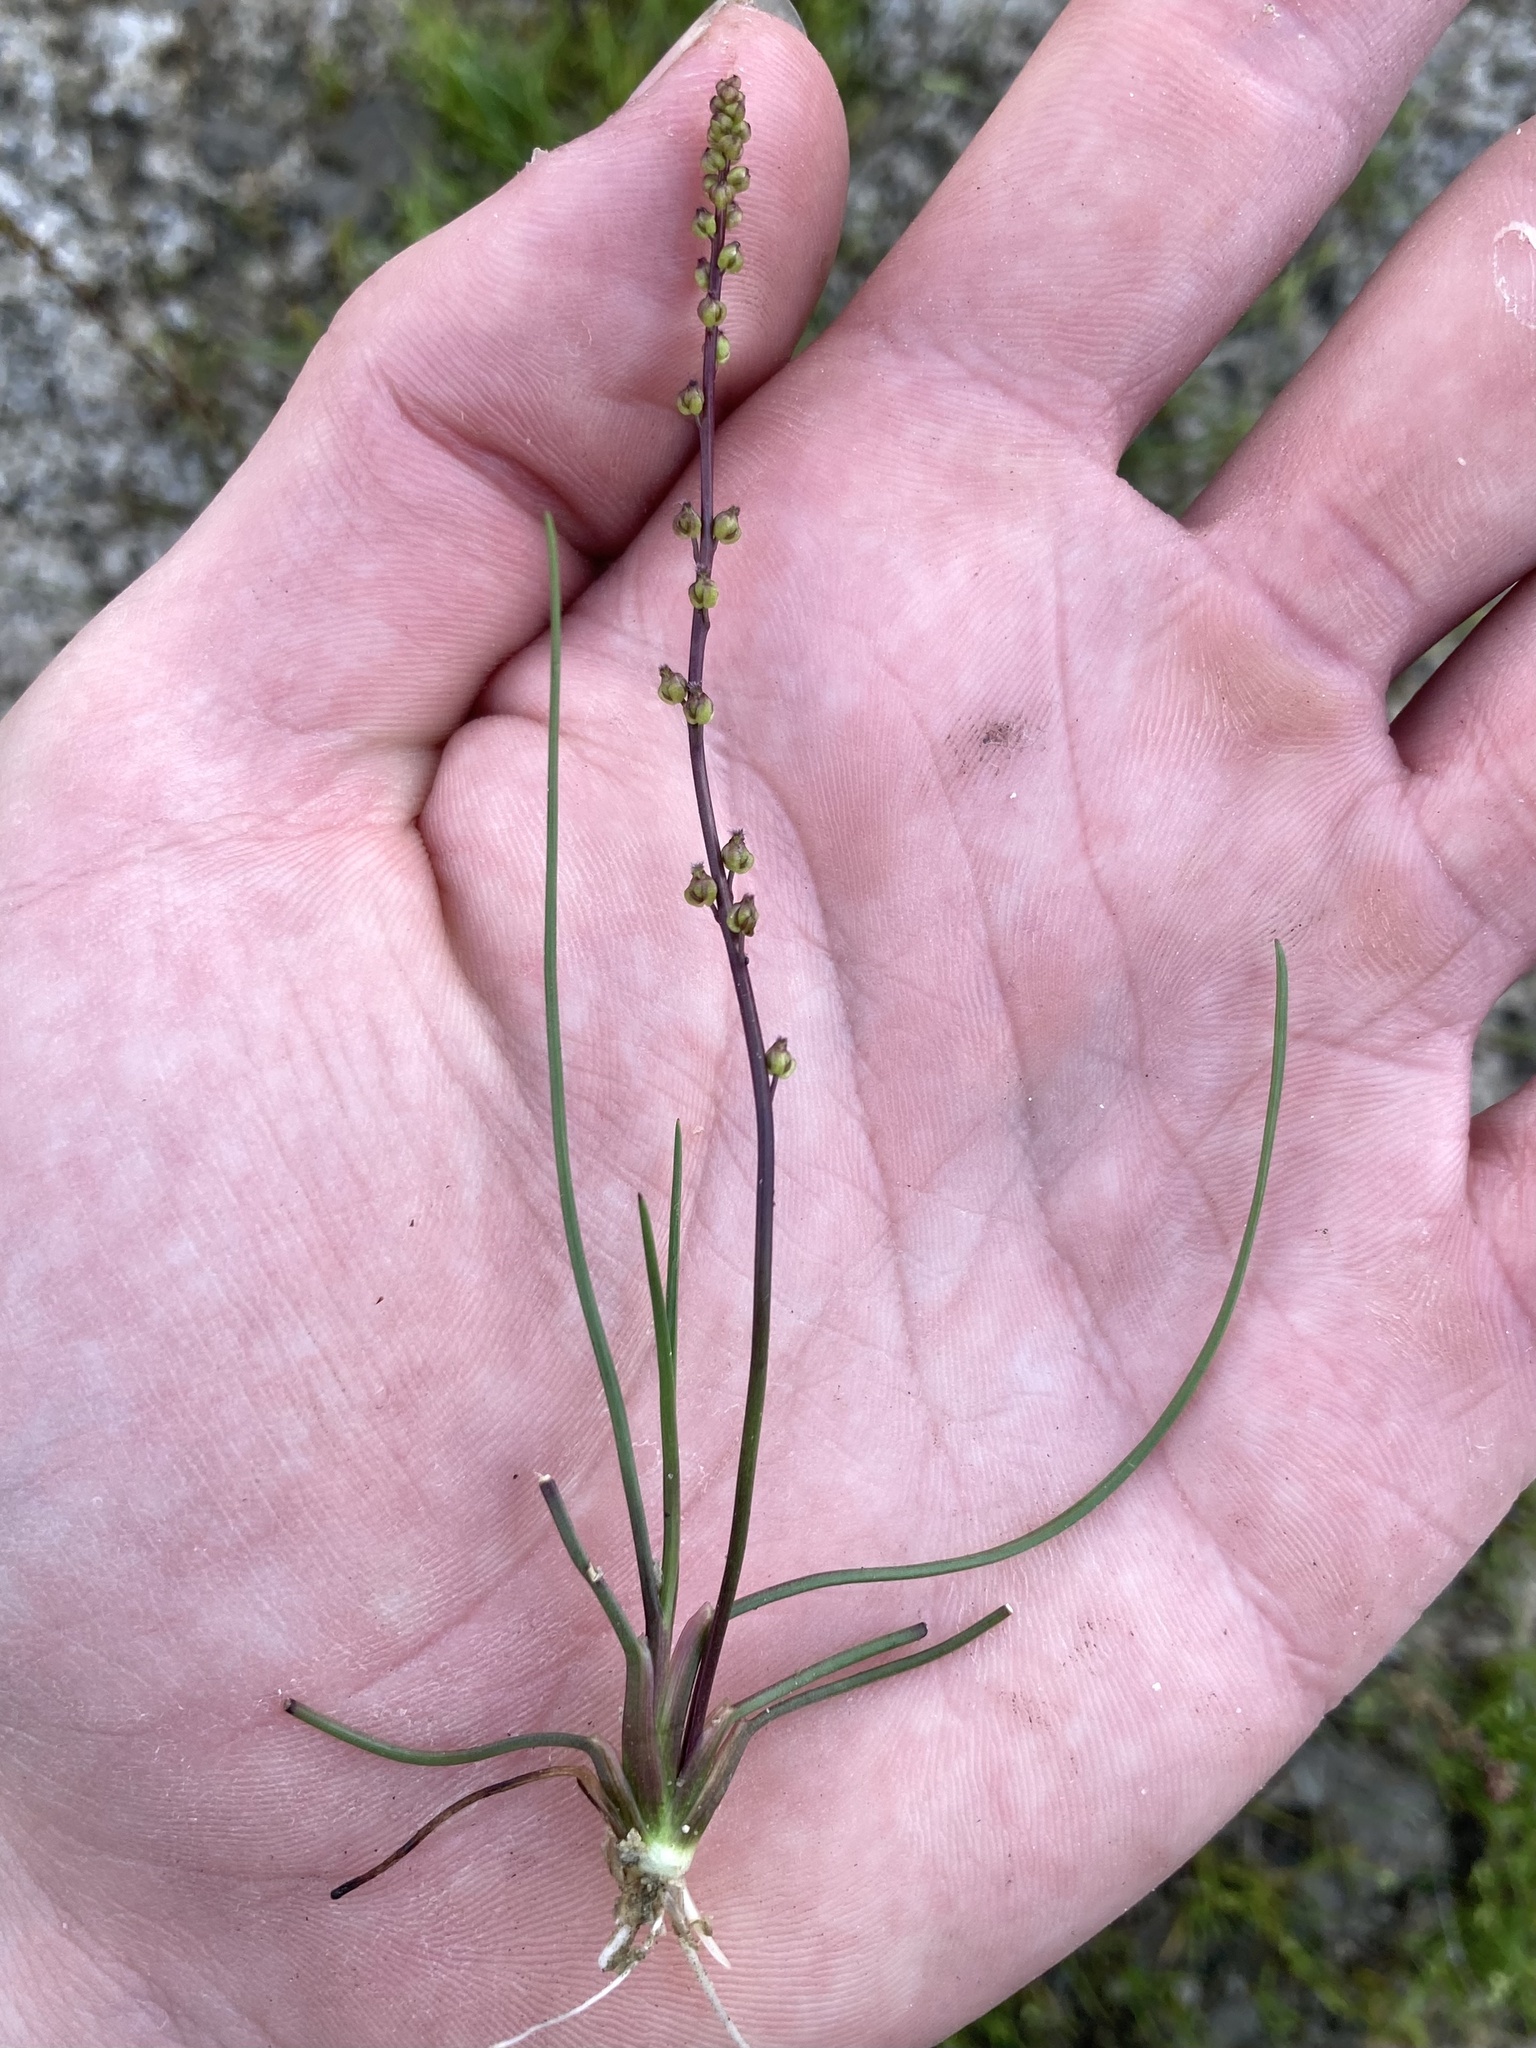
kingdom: Plantae
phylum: Tracheophyta
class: Liliopsida
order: Alismatales
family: Juncaginaceae
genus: Triglochin
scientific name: Triglochin palustris
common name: Marsh arrowgrass
